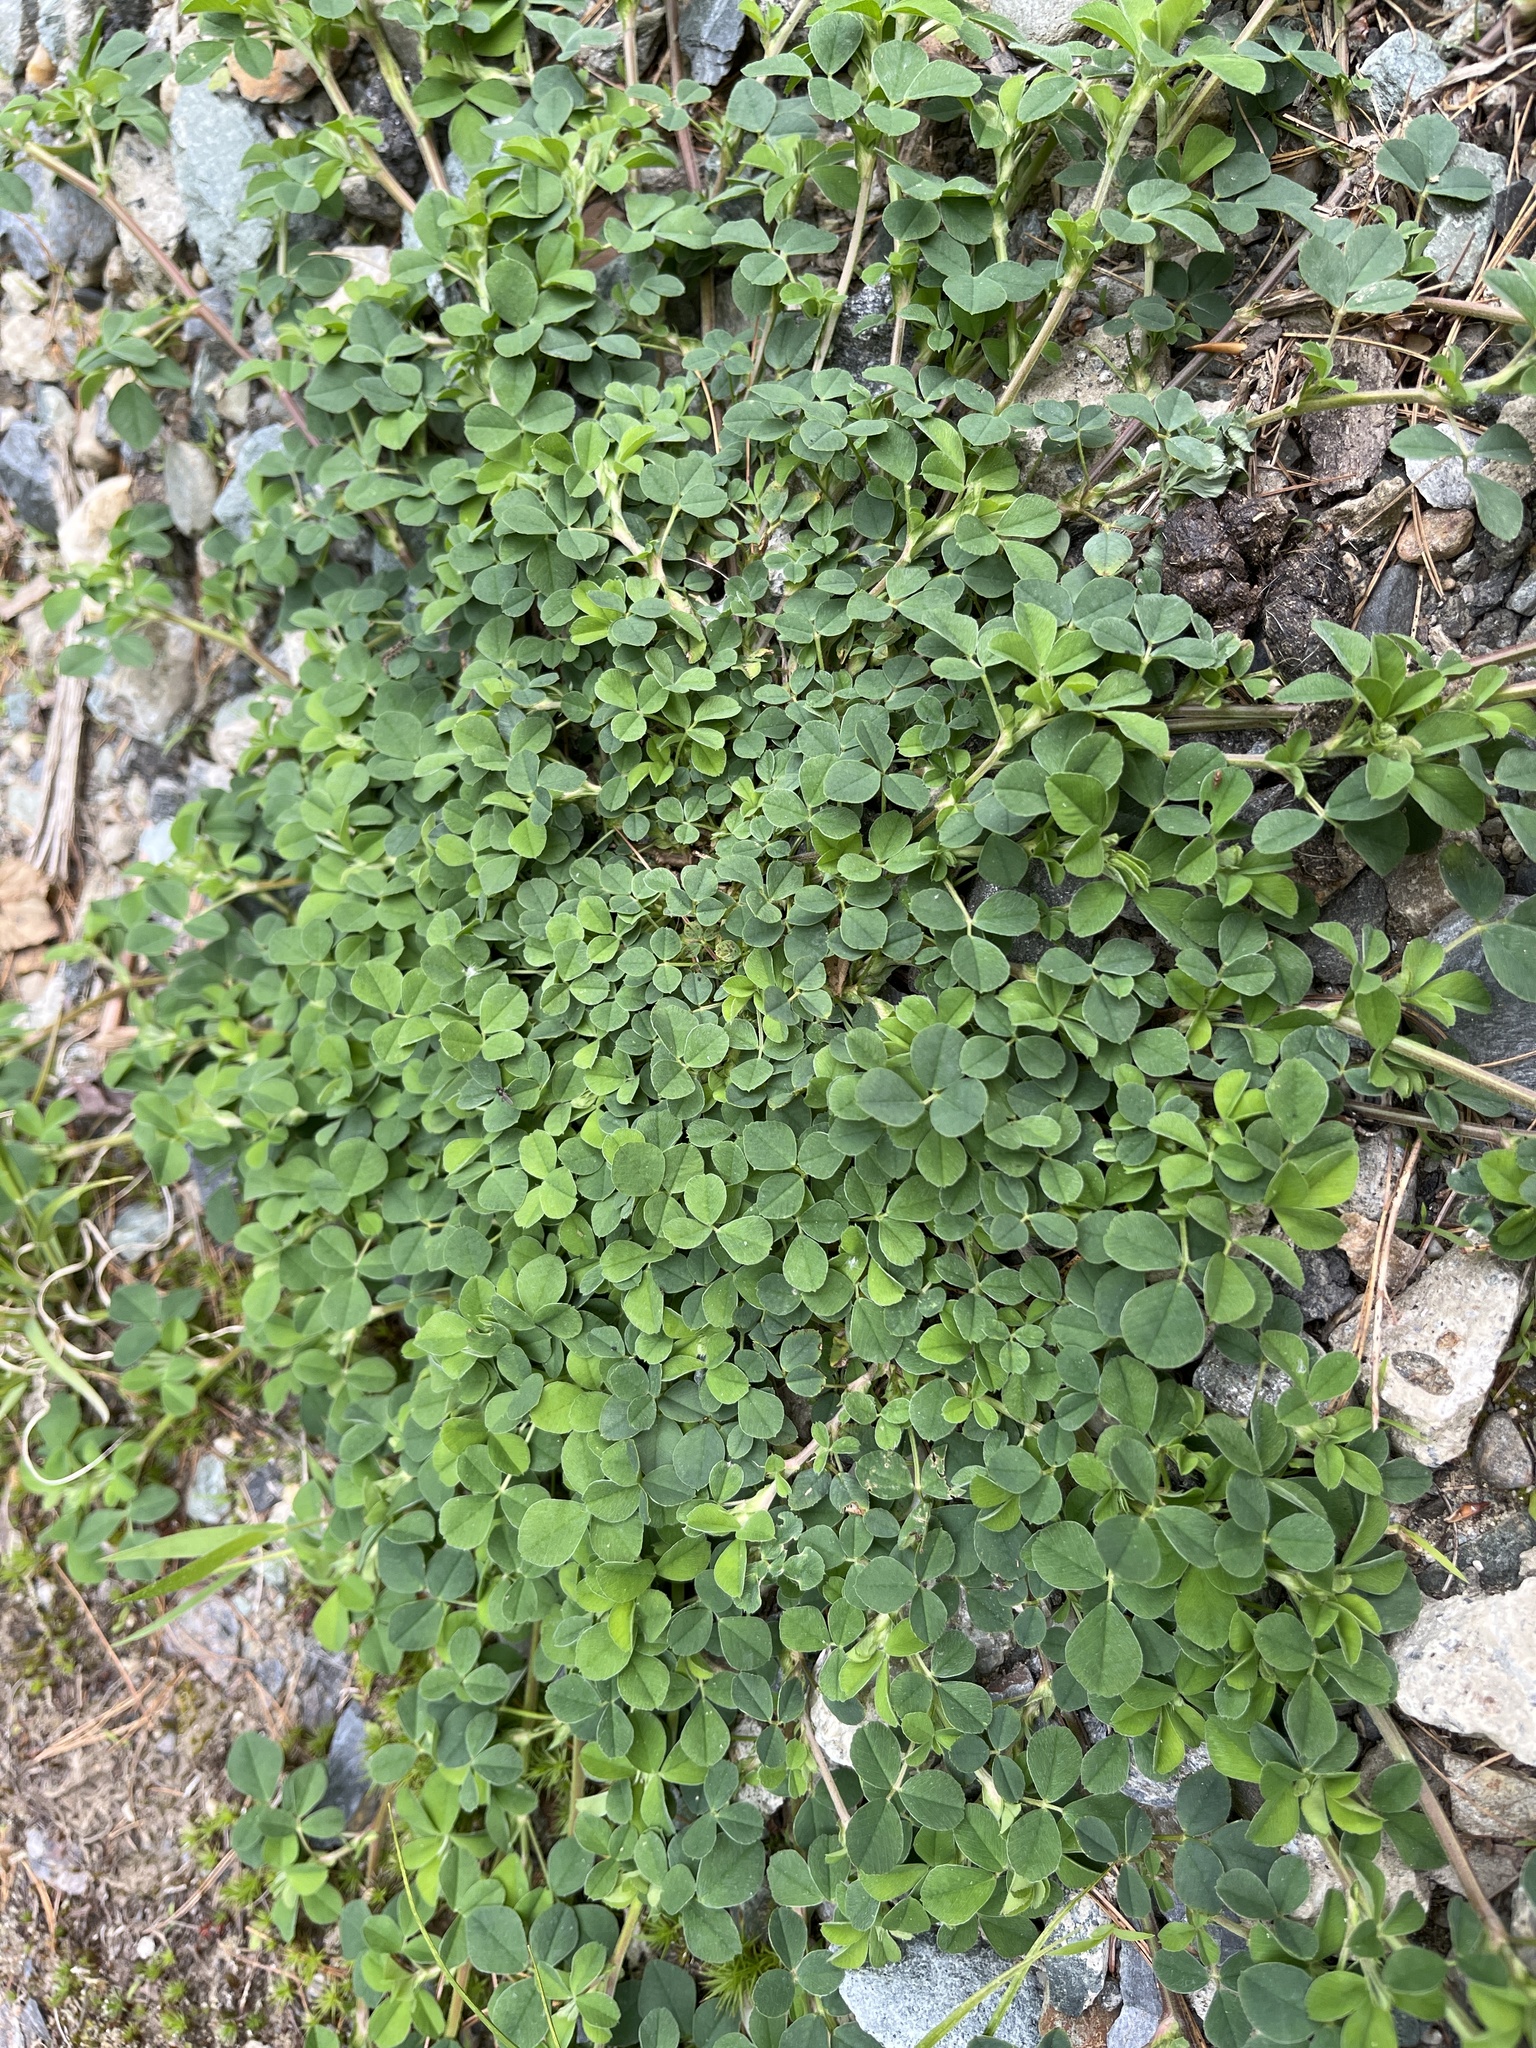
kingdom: Plantae
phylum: Tracheophyta
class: Magnoliopsida
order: Fabales
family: Fabaceae
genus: Medicago
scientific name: Medicago lupulina
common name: Black medick
